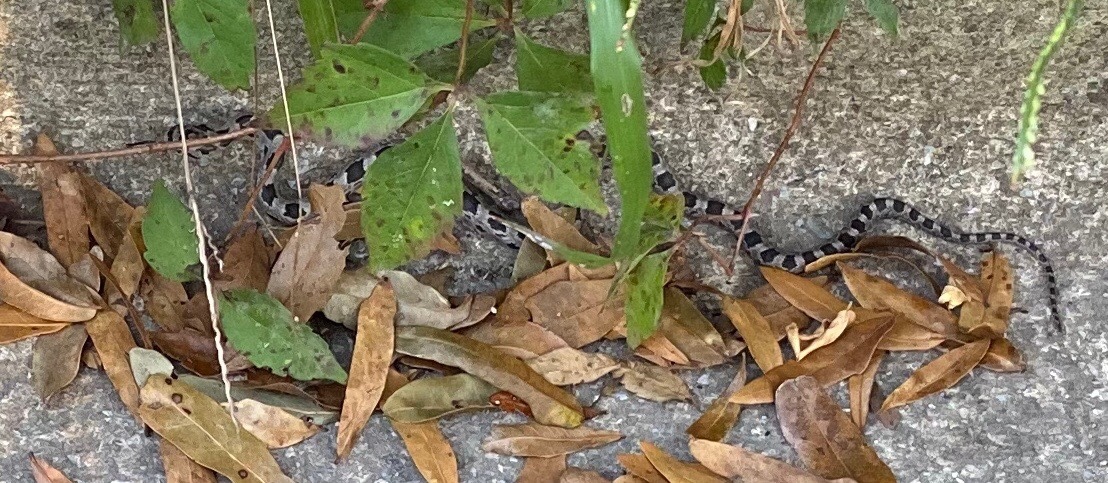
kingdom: Animalia
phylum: Chordata
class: Squamata
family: Colubridae
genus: Pantherophis
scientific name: Pantherophis alleghaniensis
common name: Eastern rat snake
